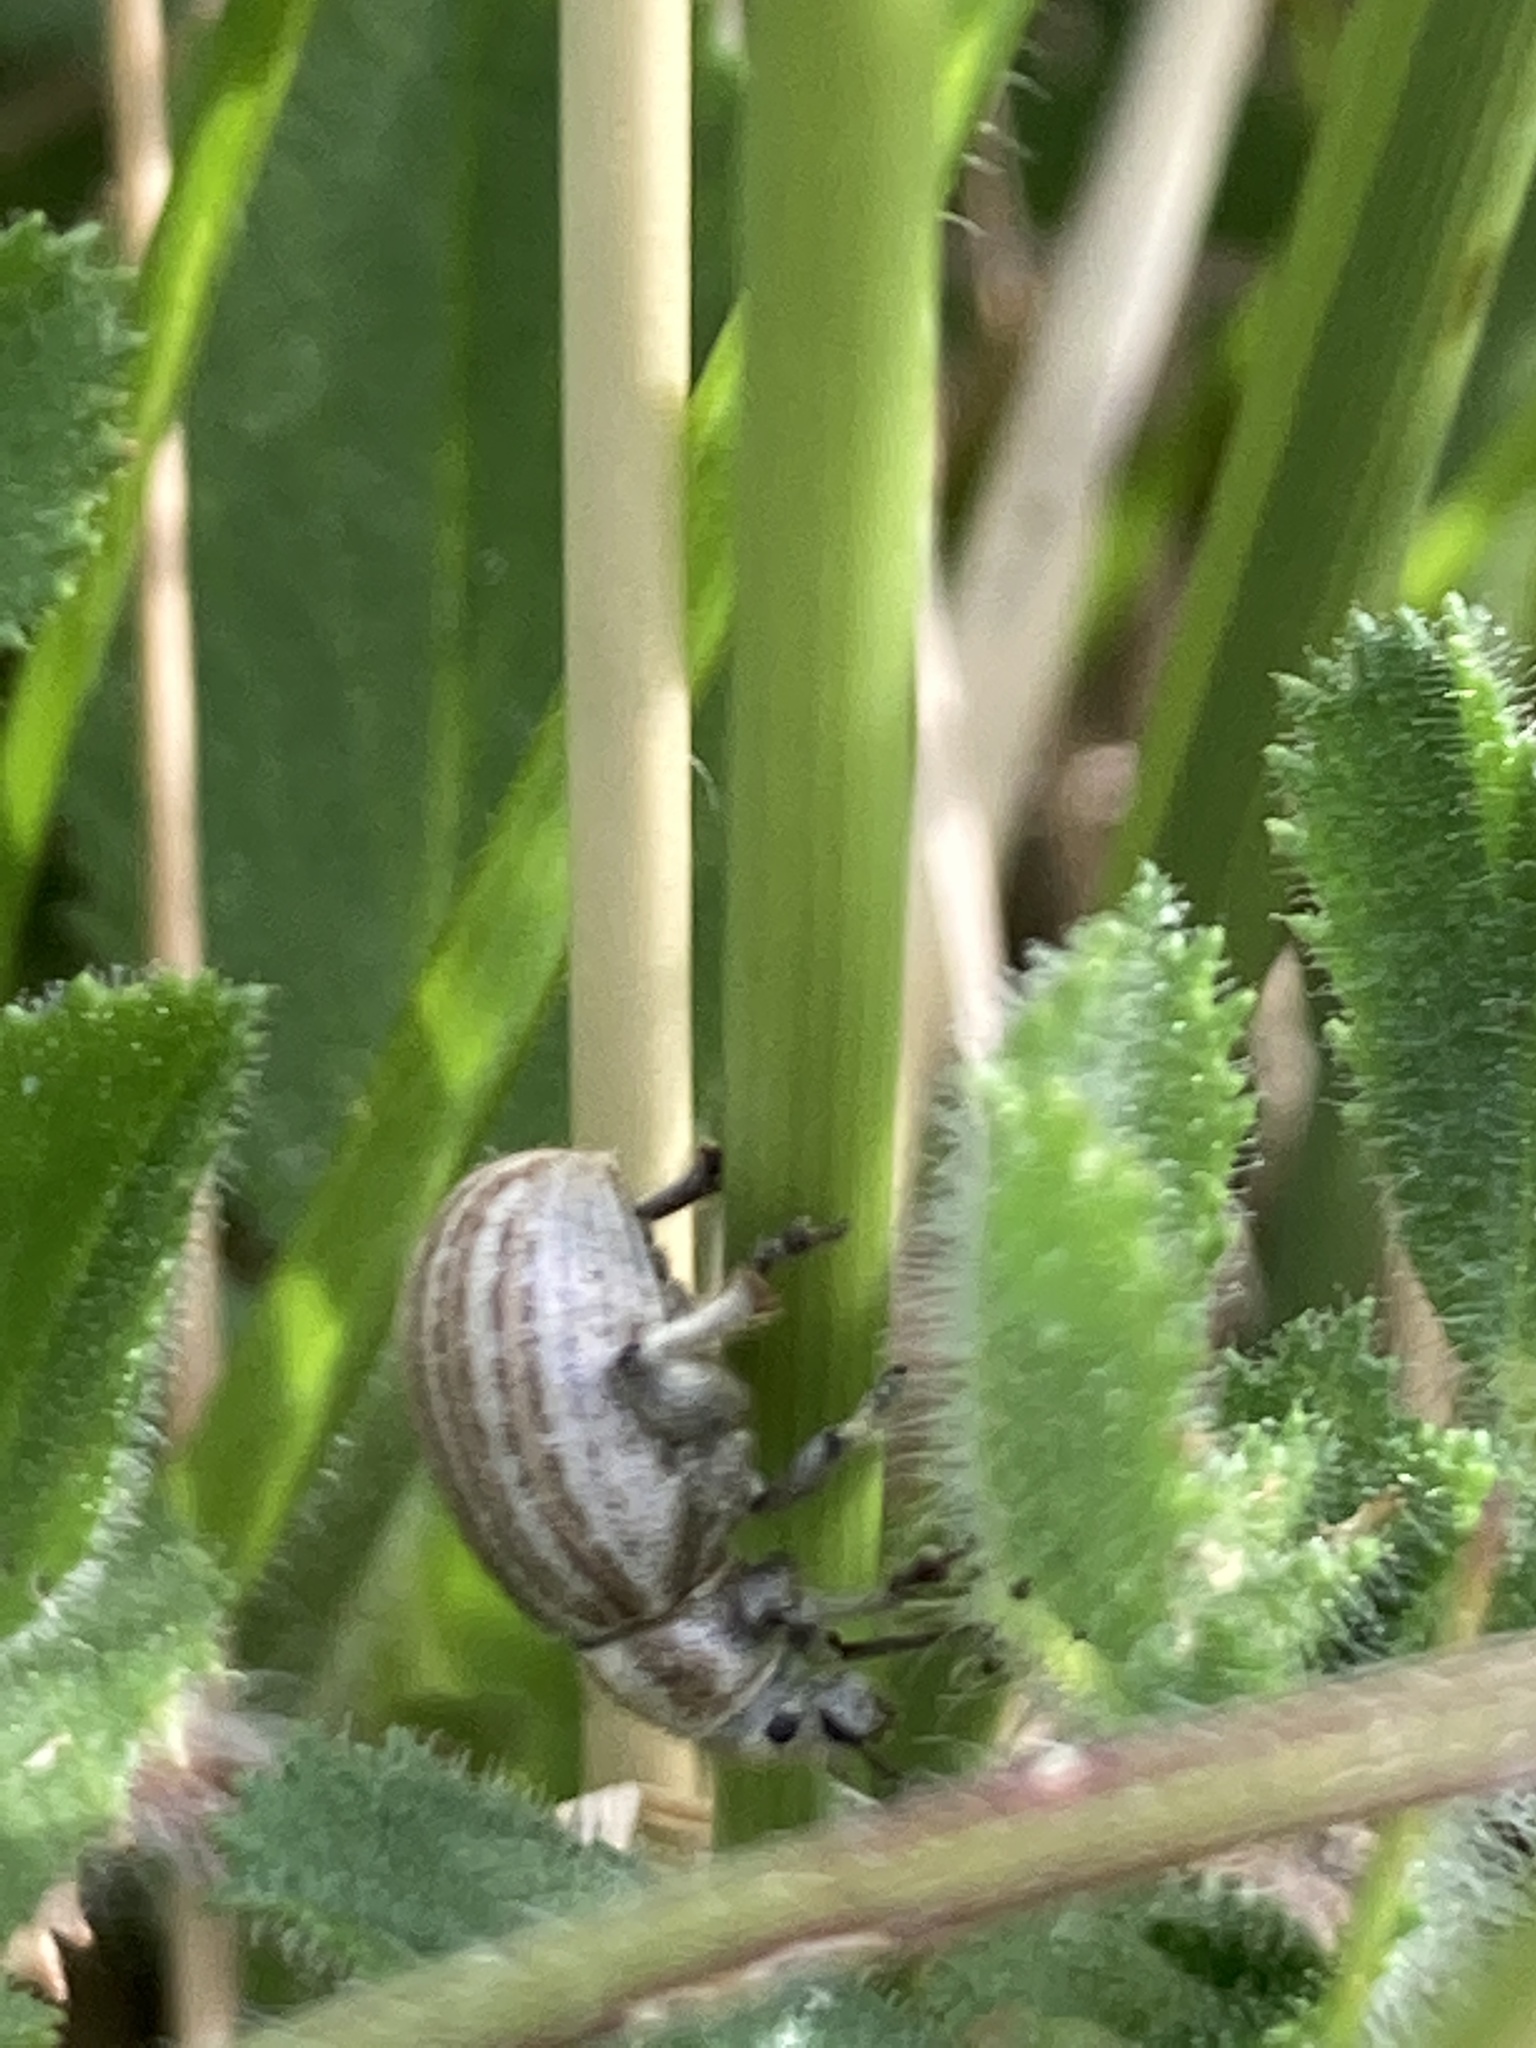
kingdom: Animalia
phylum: Arthropoda
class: Insecta
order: Coleoptera
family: Curculionidae
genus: Philopedon
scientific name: Philopedon plagiatum
